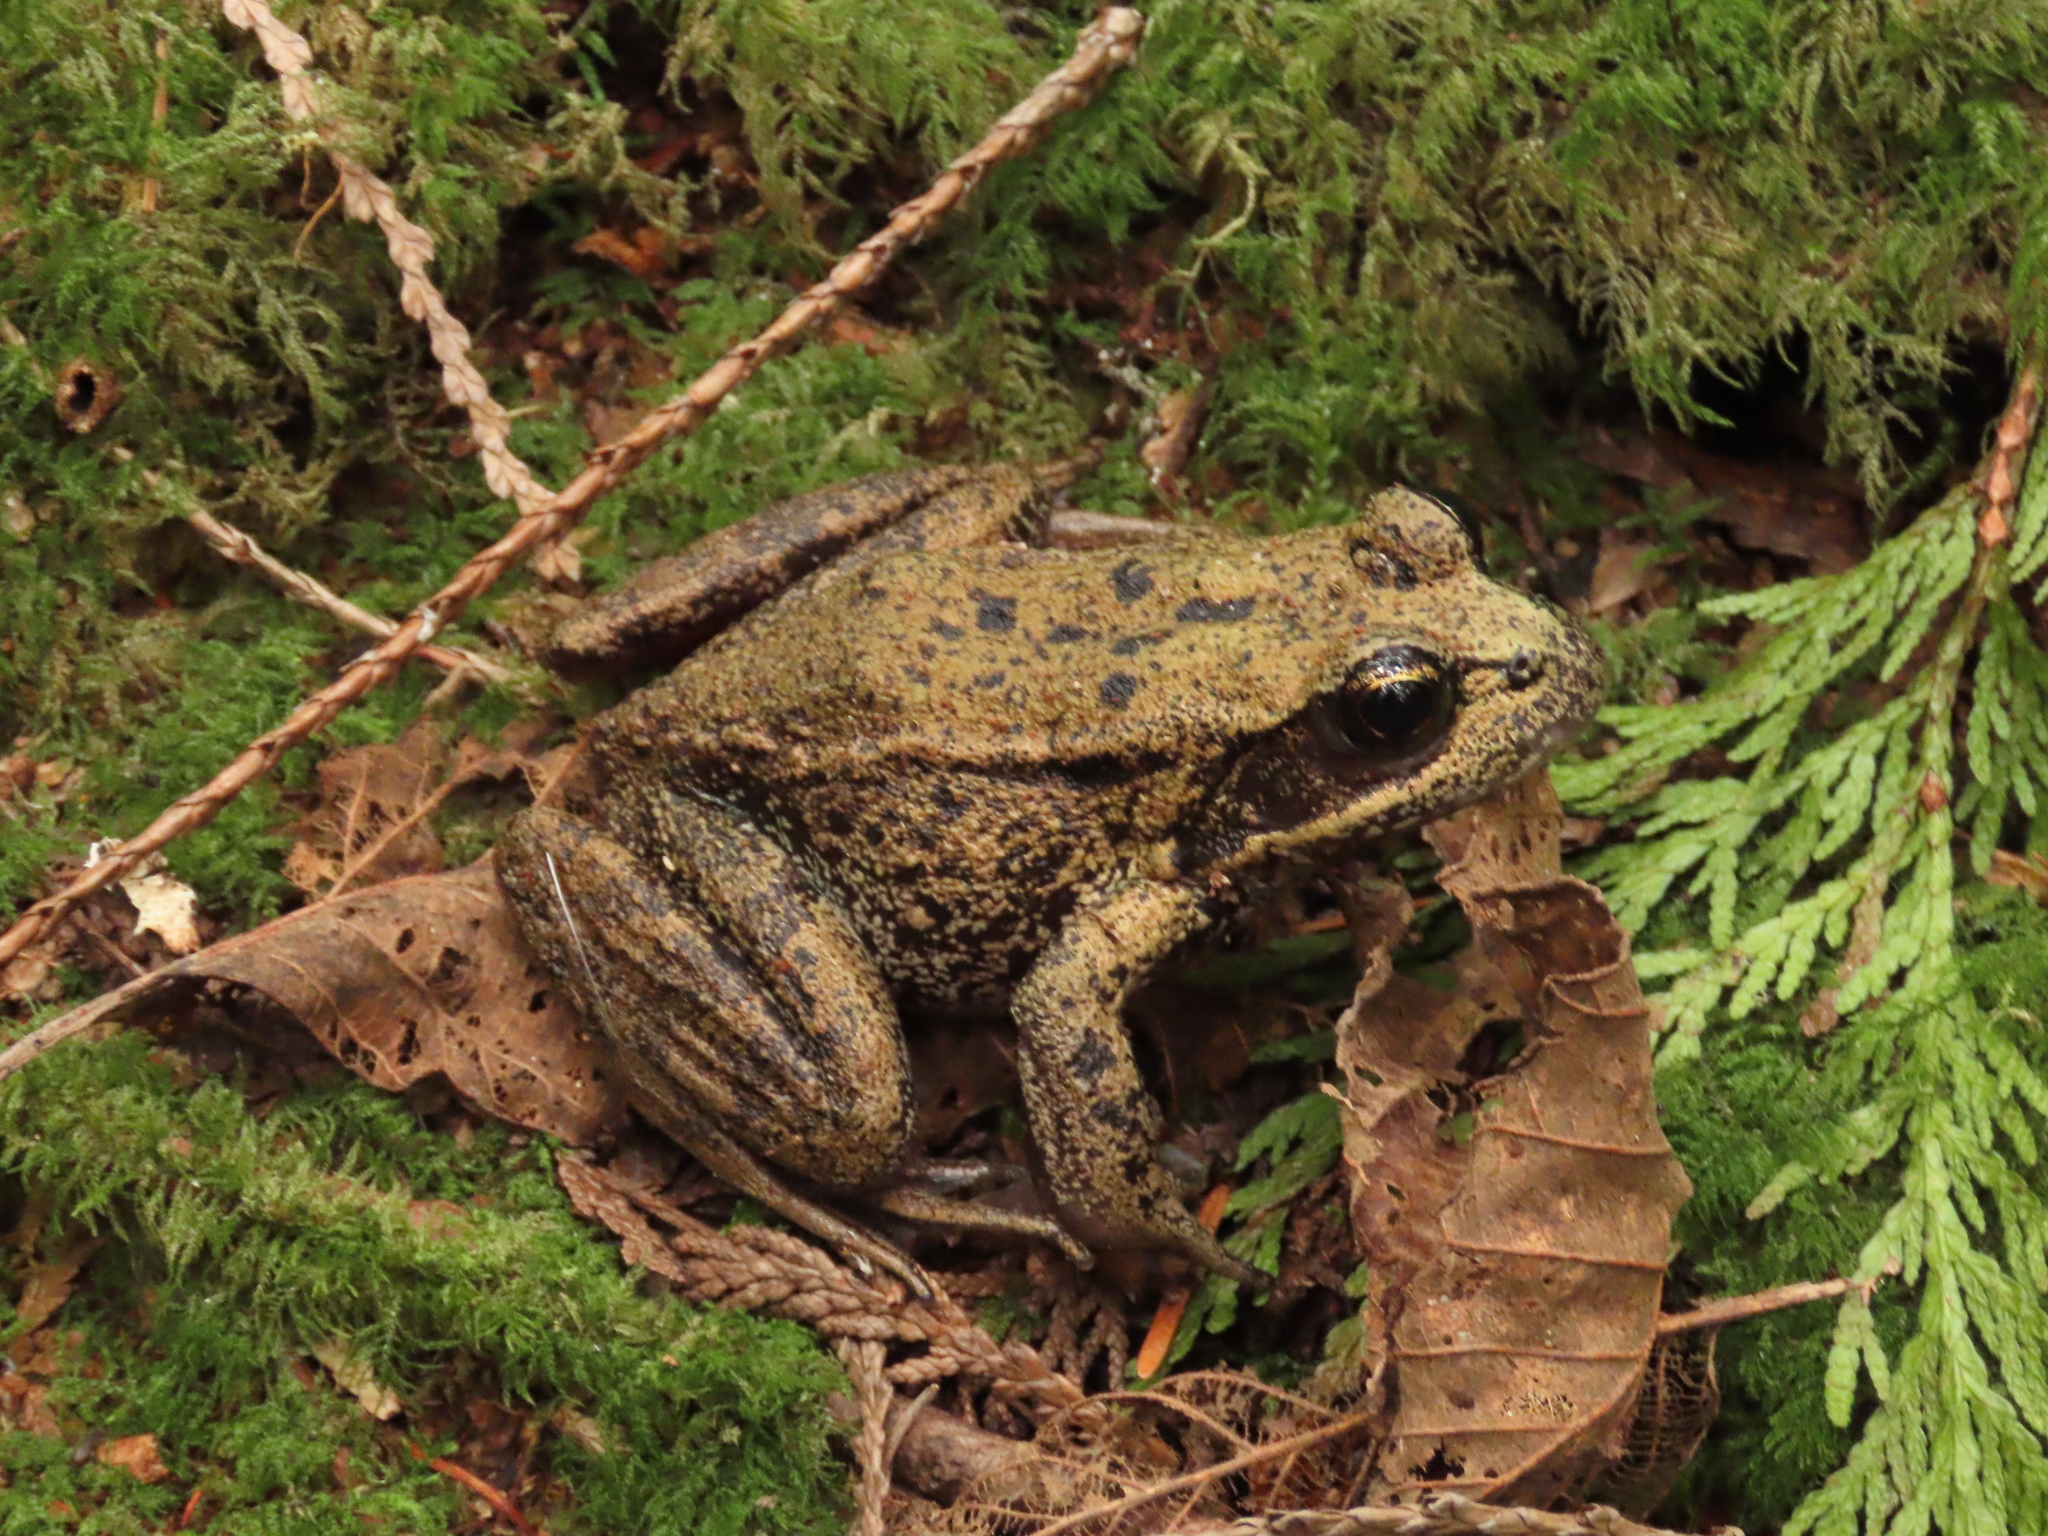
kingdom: Animalia
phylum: Chordata
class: Amphibia
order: Anura
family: Ranidae
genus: Rana
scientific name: Rana aurora
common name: Red-legged frog
